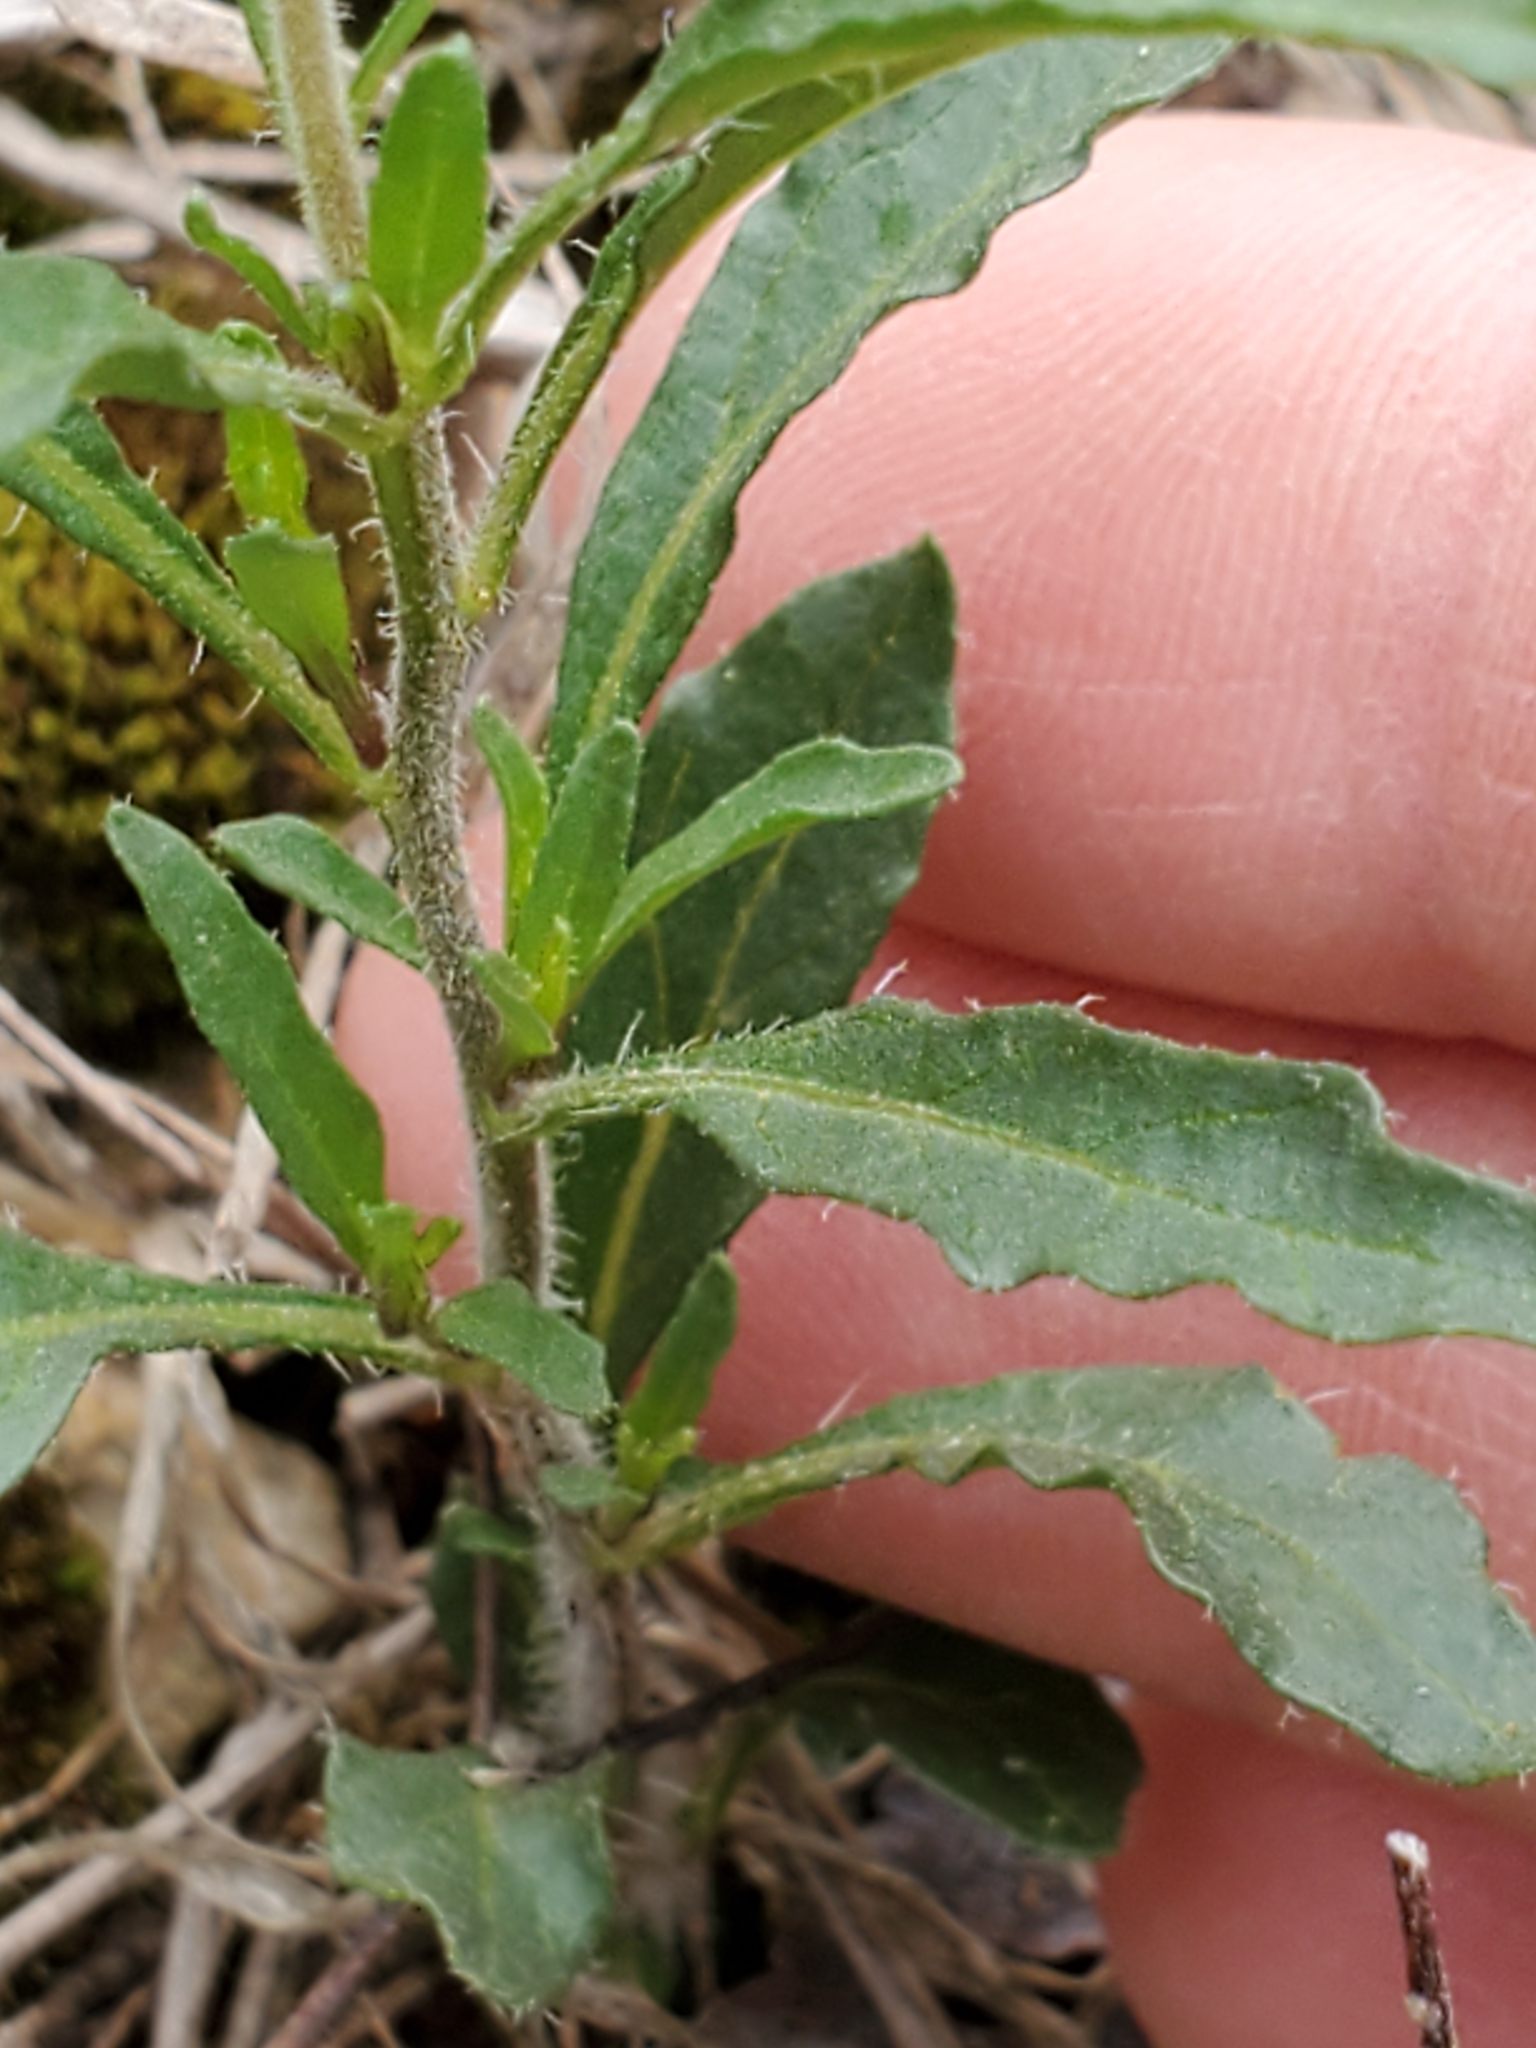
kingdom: Plantae
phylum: Tracheophyta
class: Magnoliopsida
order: Solanales
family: Solanaceae
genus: Chamaesaracha
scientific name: Chamaesaracha edwardsiana
